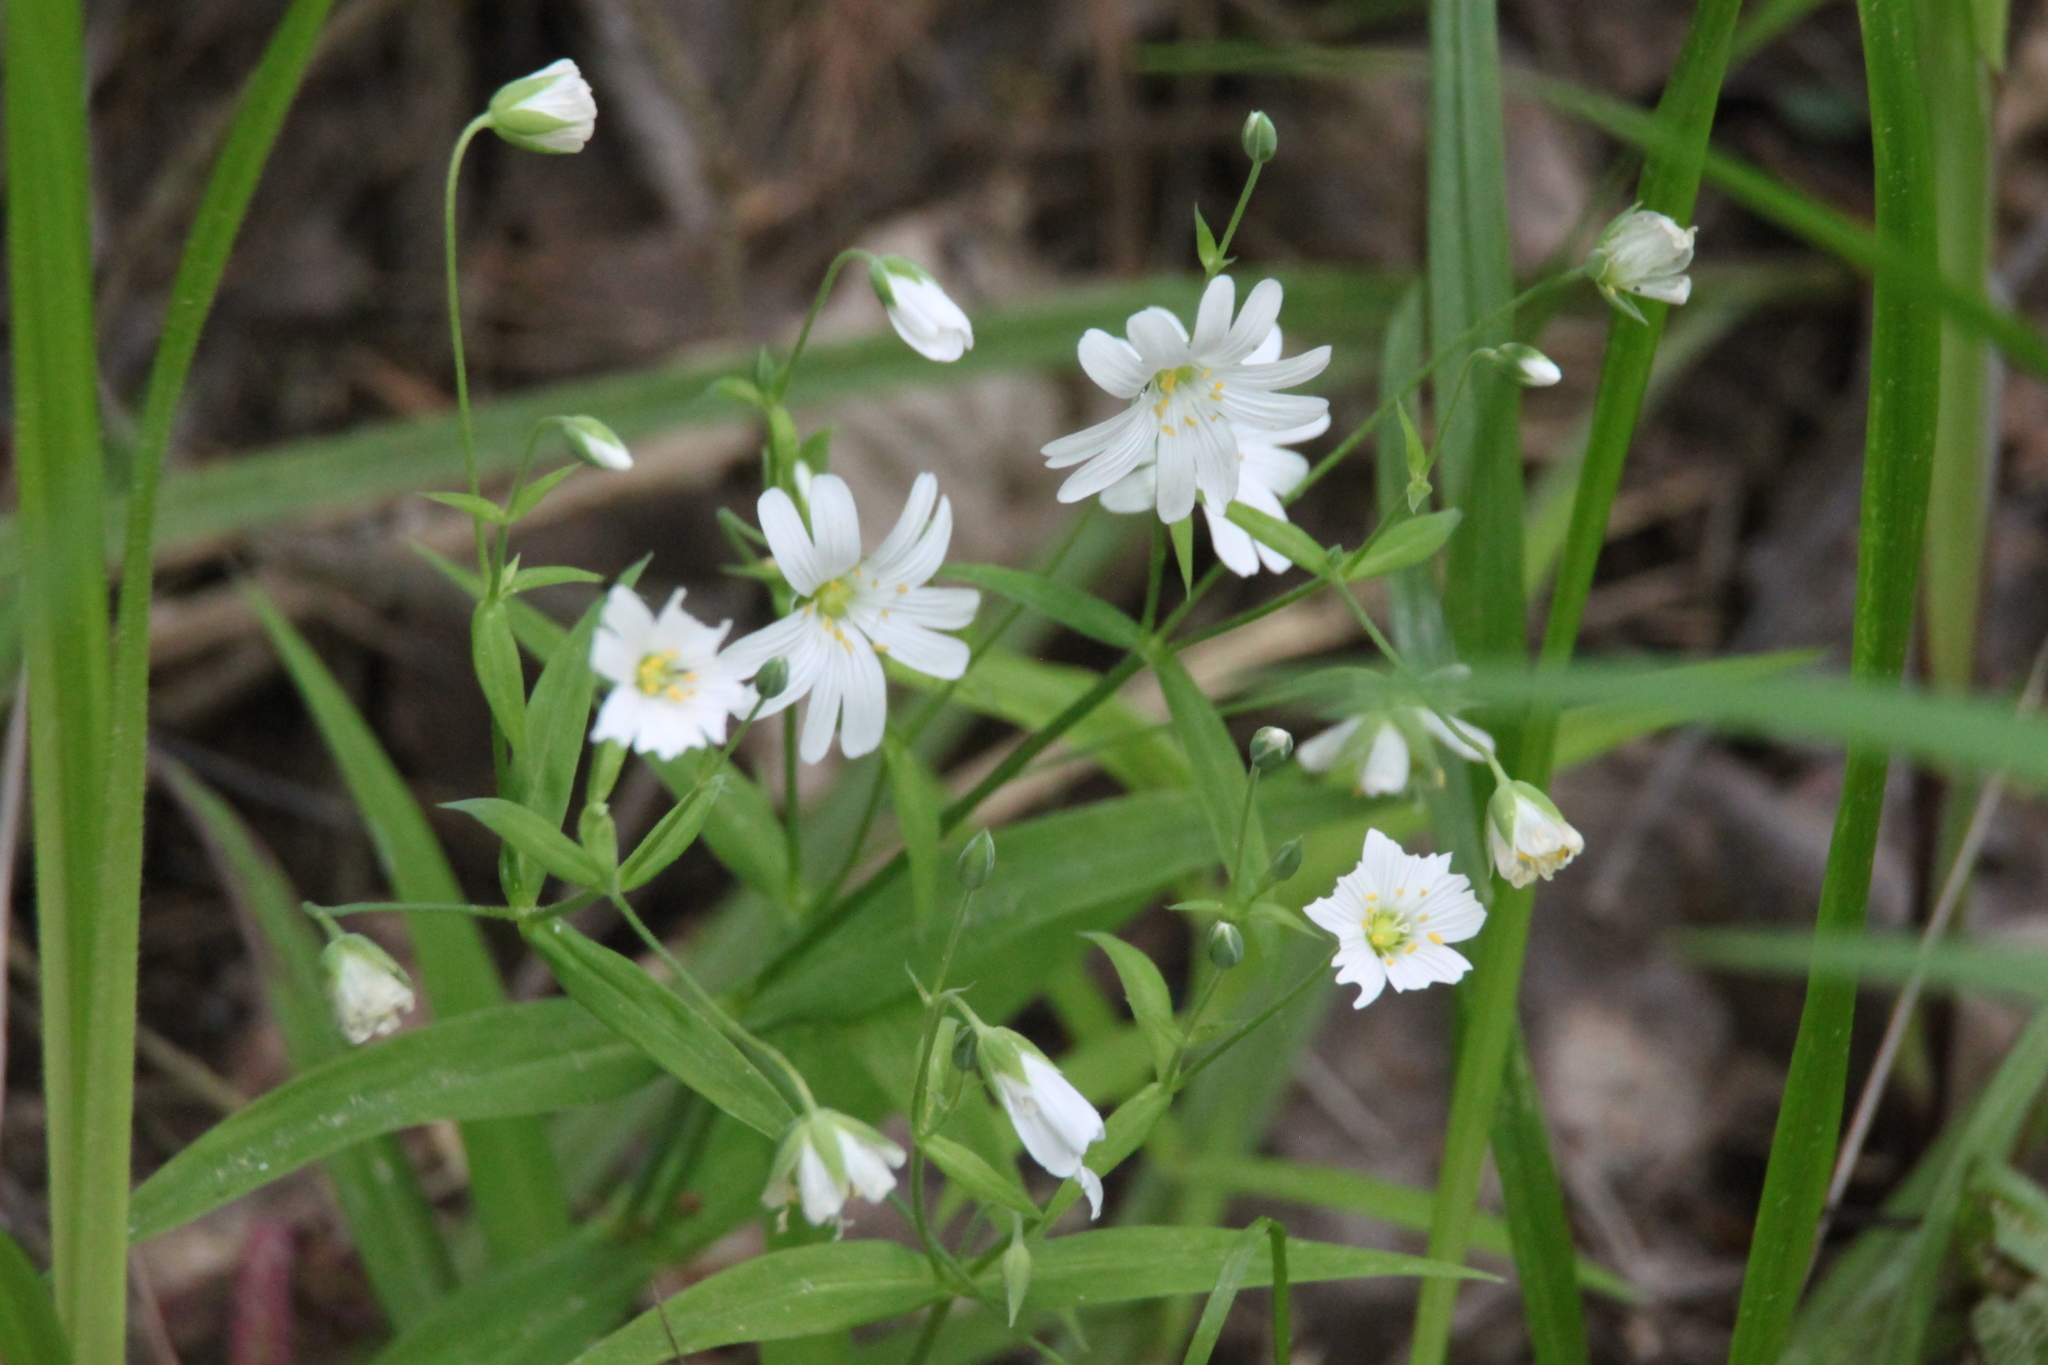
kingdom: Plantae
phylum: Tracheophyta
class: Magnoliopsida
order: Caryophyllales
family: Caryophyllaceae
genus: Rabelera
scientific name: Rabelera holostea
